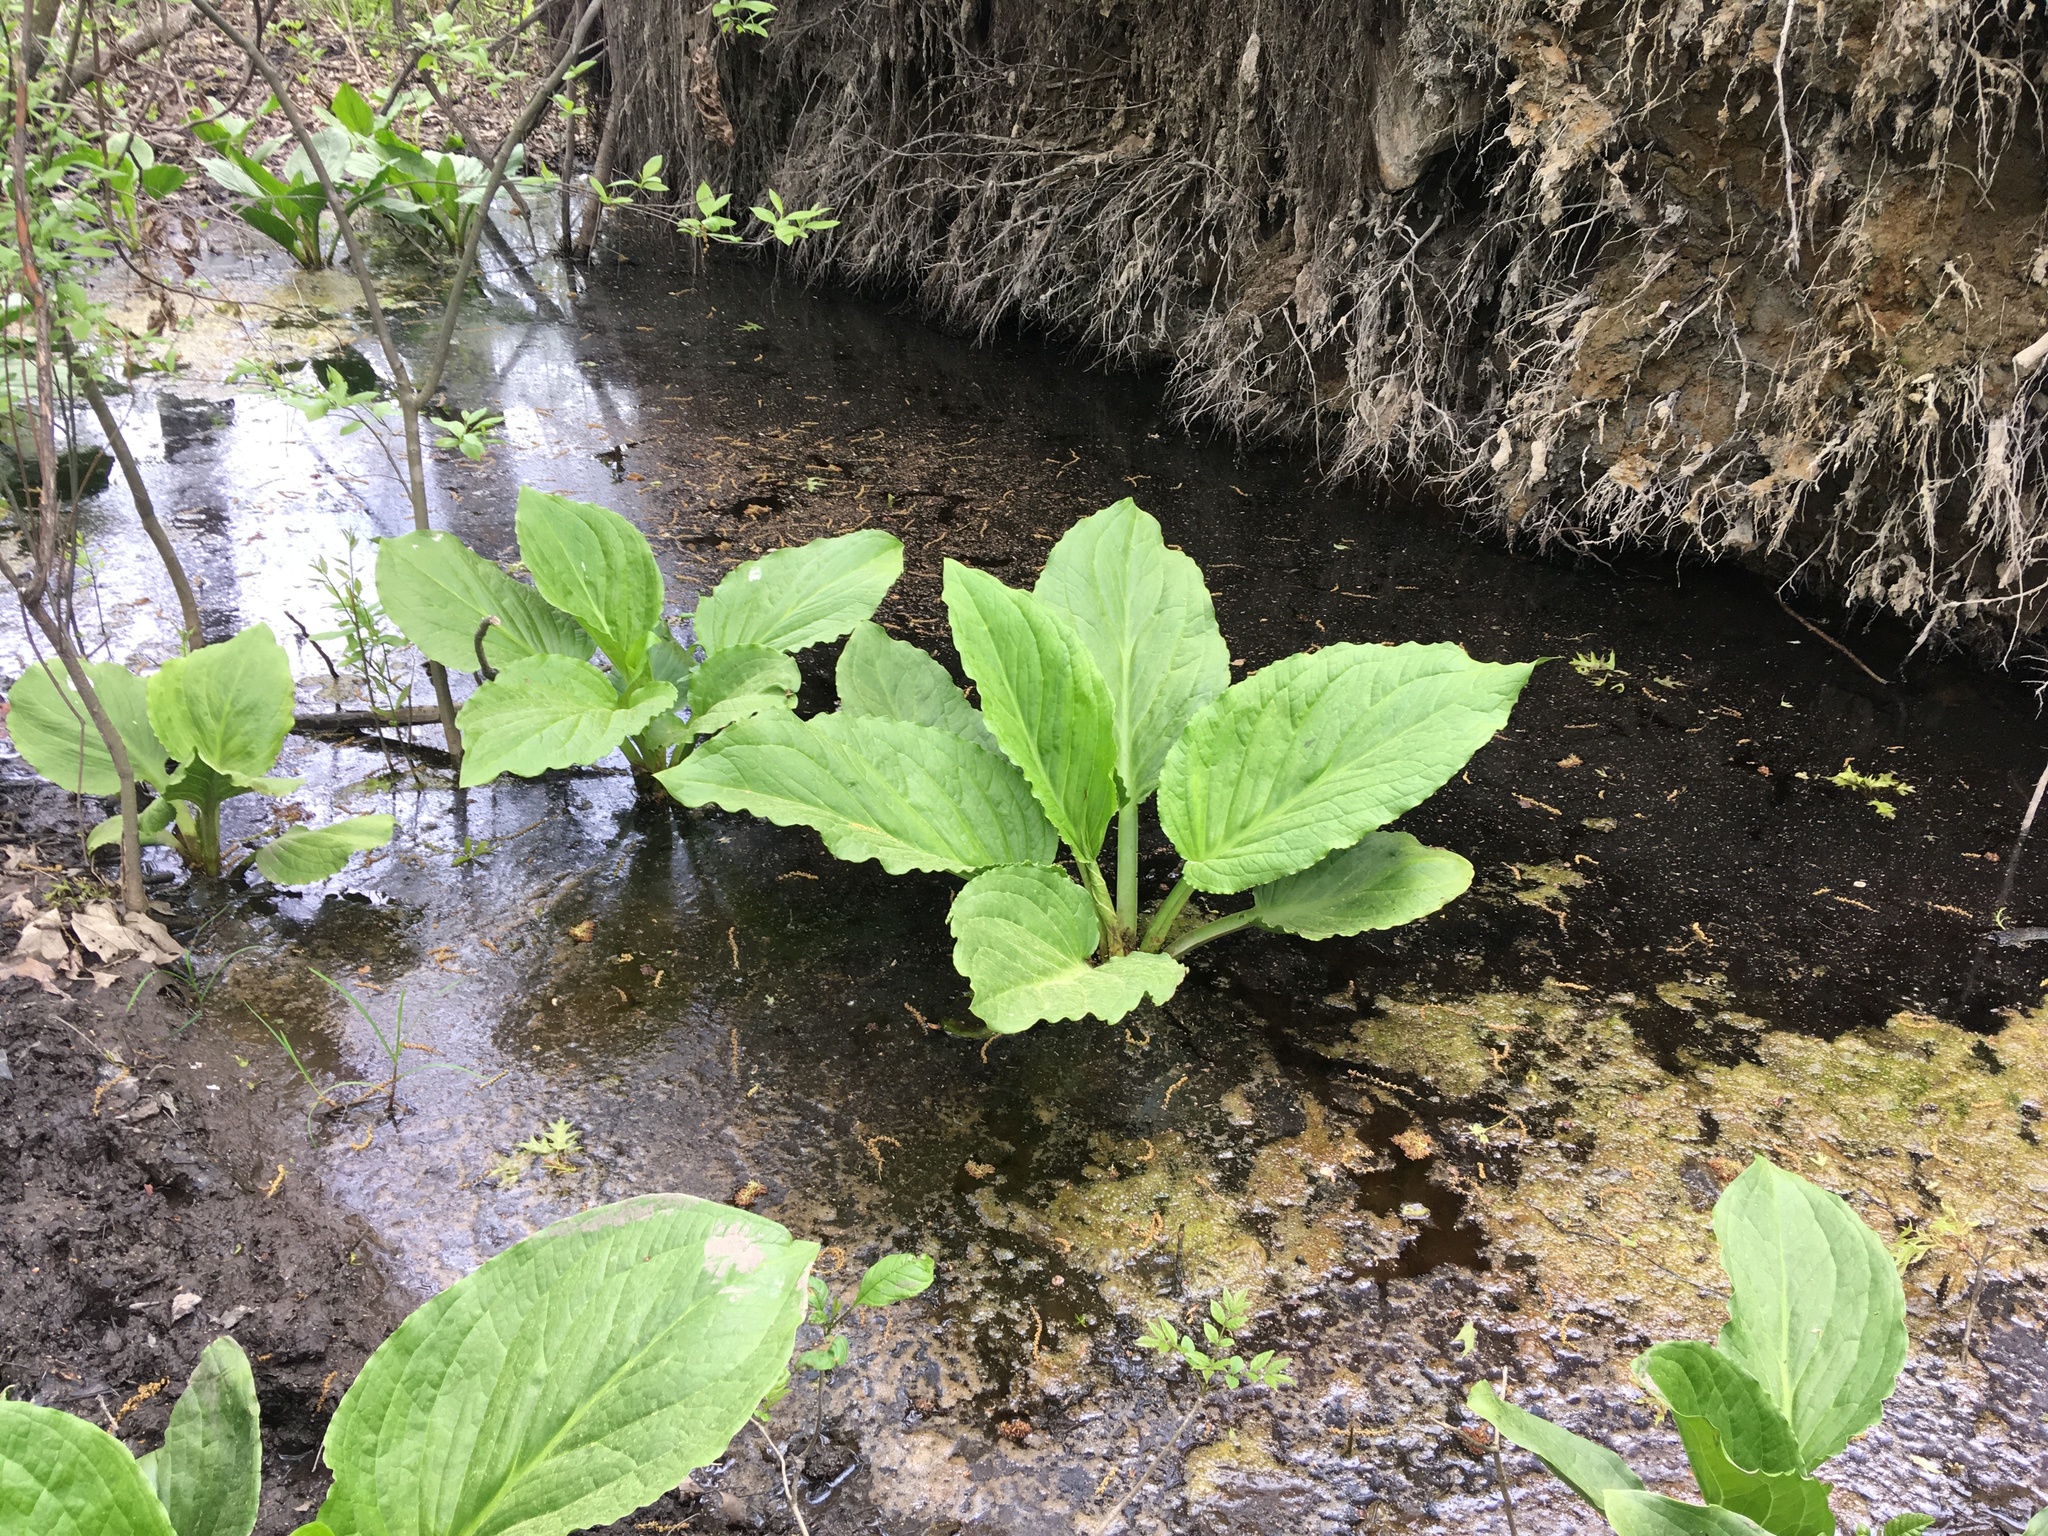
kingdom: Plantae
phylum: Tracheophyta
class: Liliopsida
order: Alismatales
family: Araceae
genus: Symplocarpus
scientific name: Symplocarpus foetidus
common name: Eastern skunk cabbage
